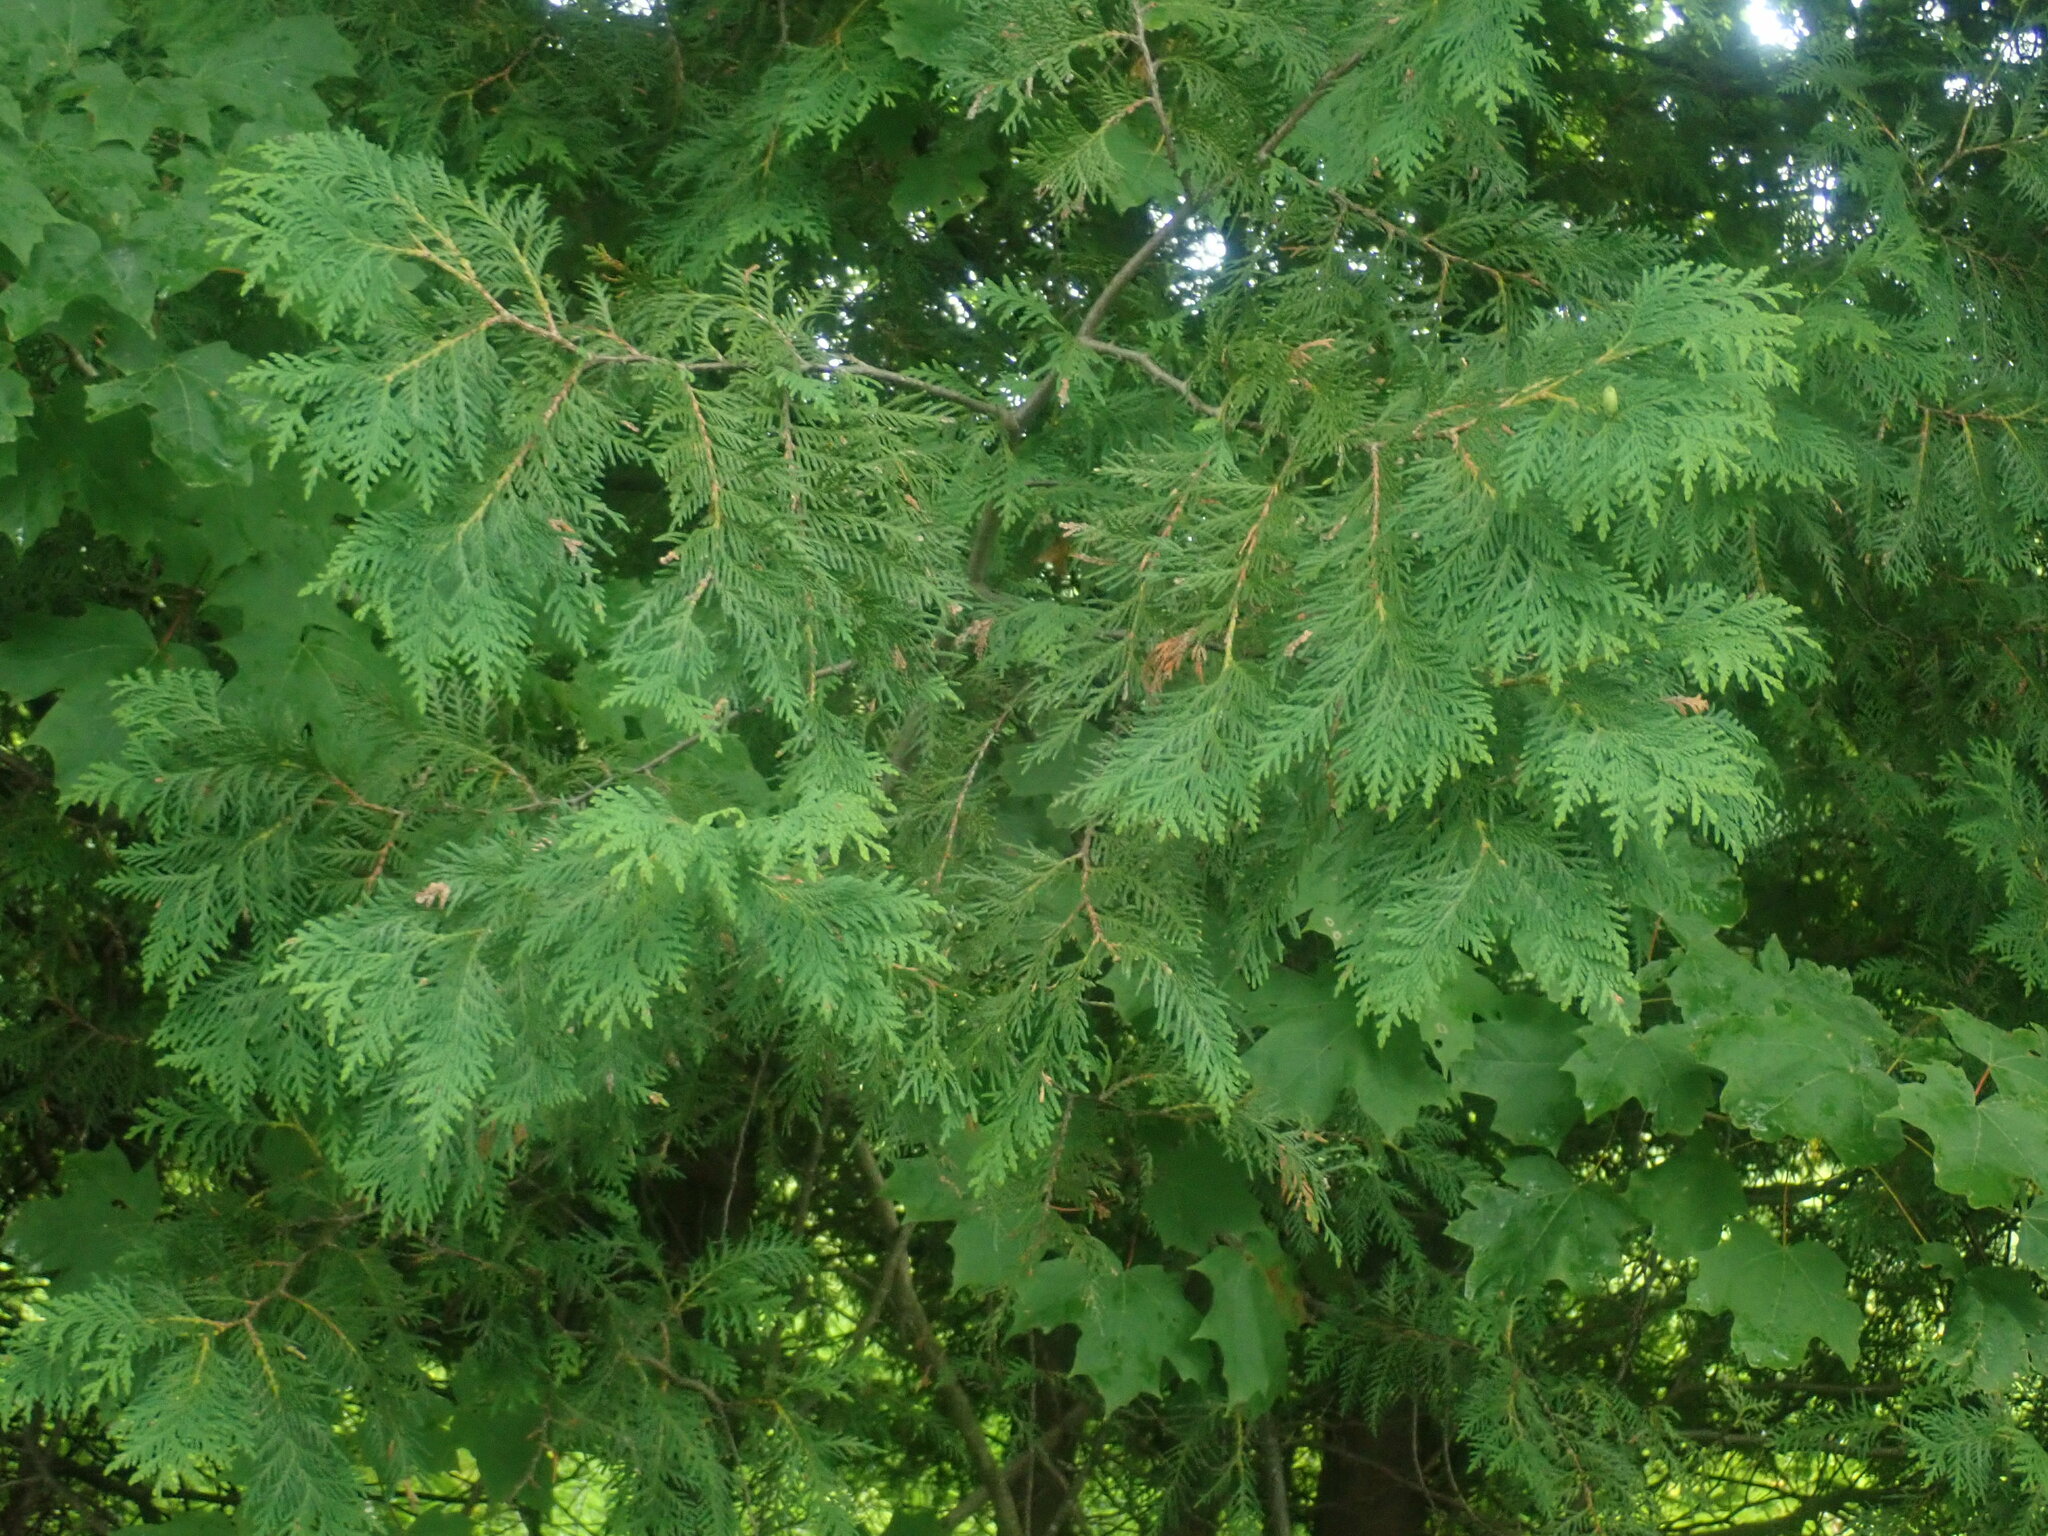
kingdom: Plantae
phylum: Tracheophyta
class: Pinopsida
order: Pinales
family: Cupressaceae
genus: Thuja
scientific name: Thuja occidentalis
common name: Northern white-cedar
